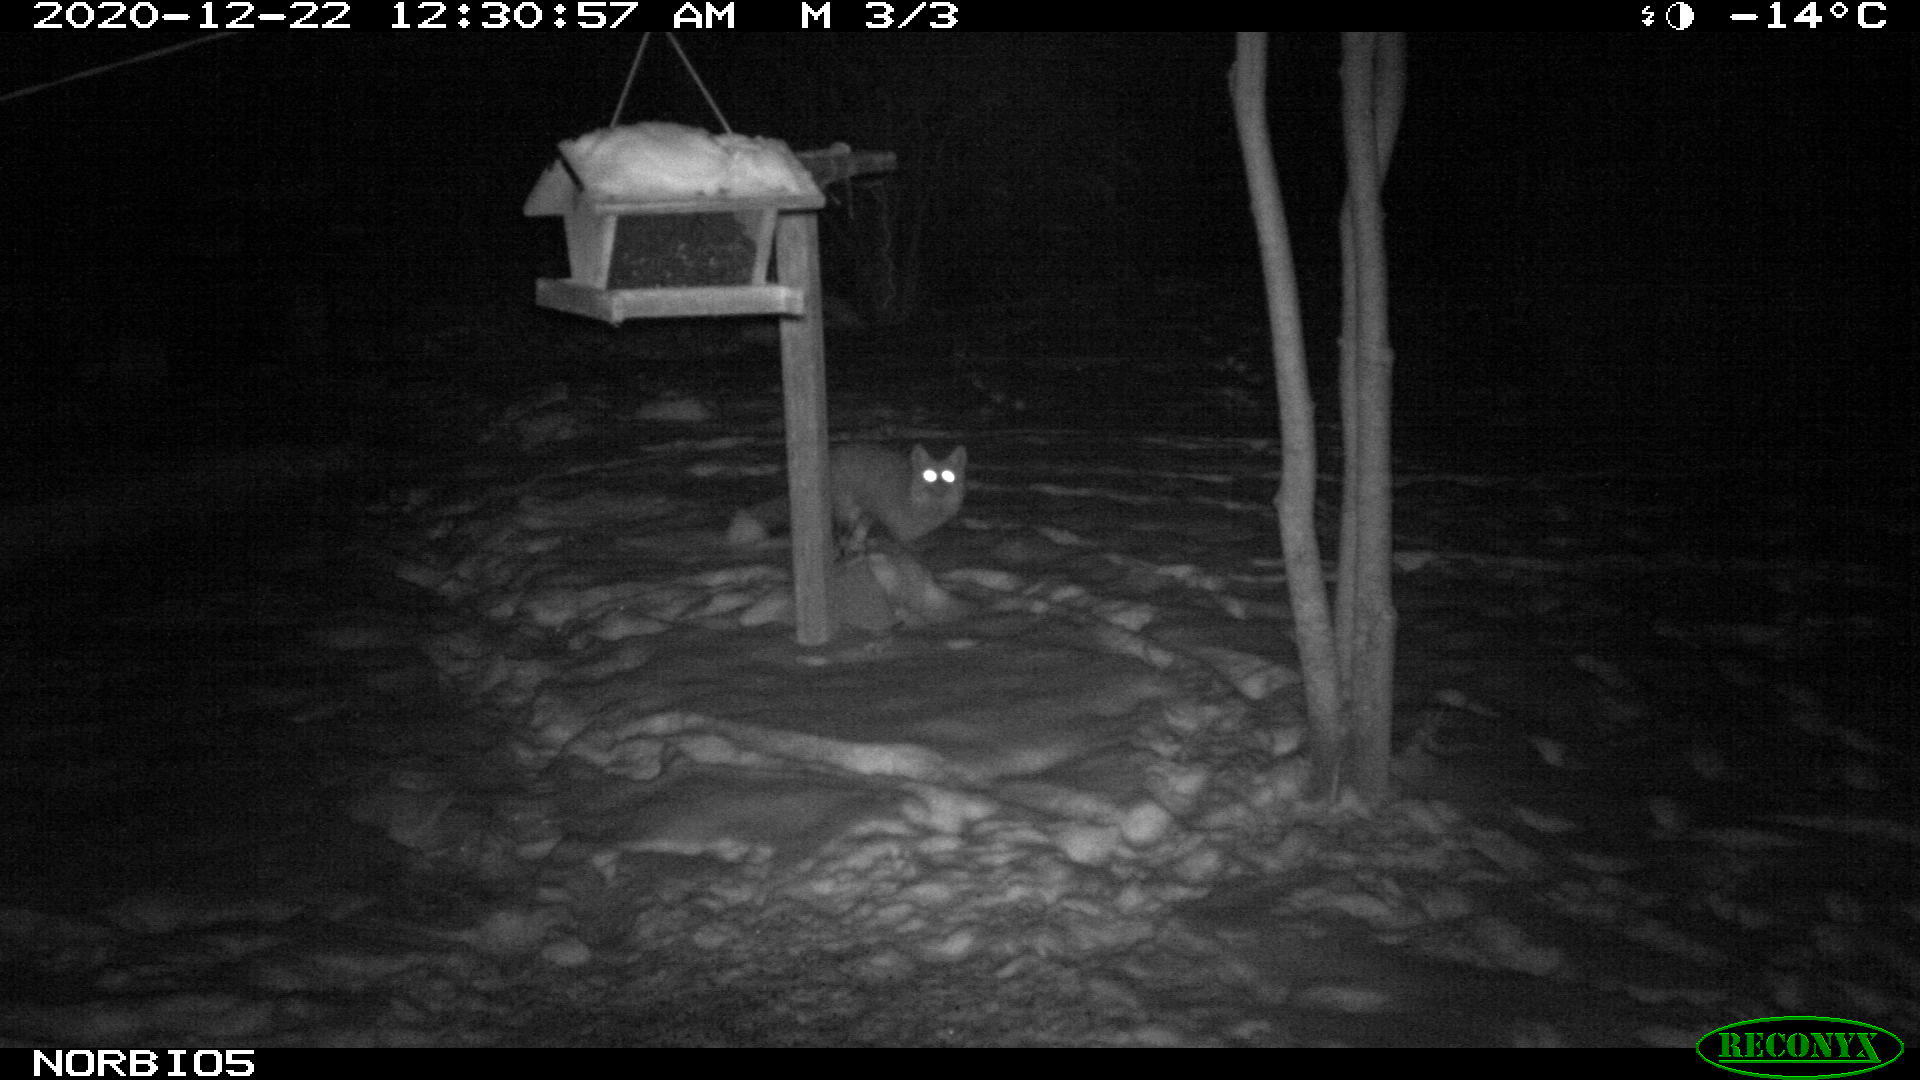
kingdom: Animalia
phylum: Chordata
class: Mammalia
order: Carnivora
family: Canidae
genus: Vulpes
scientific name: Vulpes vulpes
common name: Red fox
